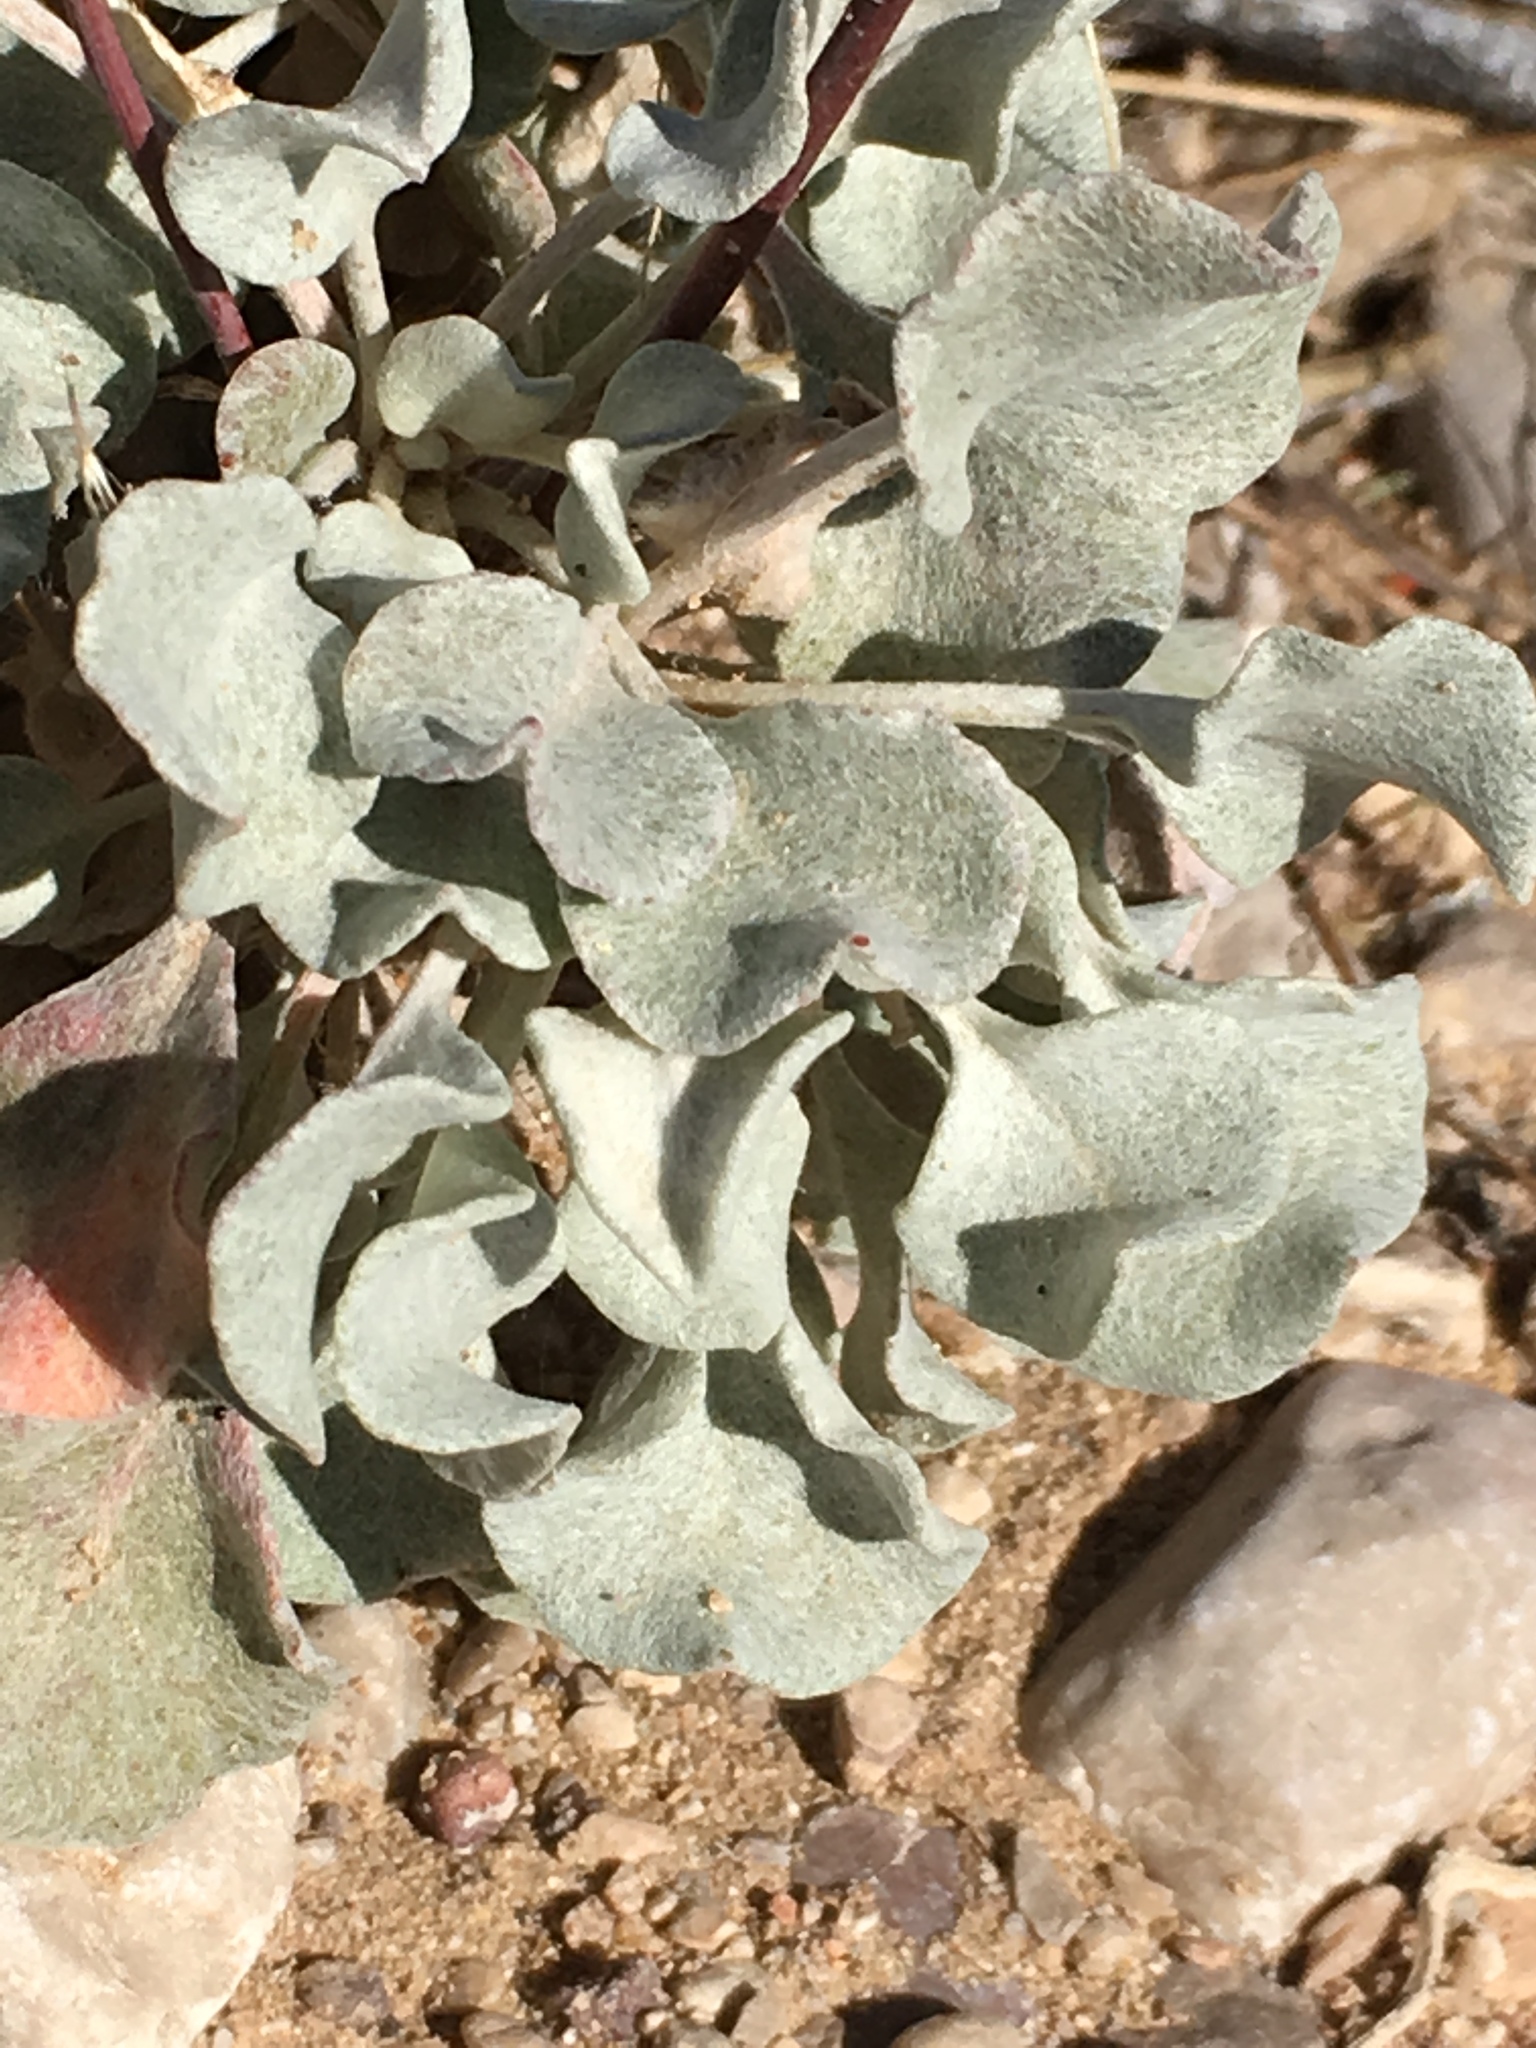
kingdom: Plantae
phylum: Tracheophyta
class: Magnoliopsida
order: Caryophyllales
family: Polygonaceae
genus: Eriogonum
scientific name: Eriogonum tenellum
